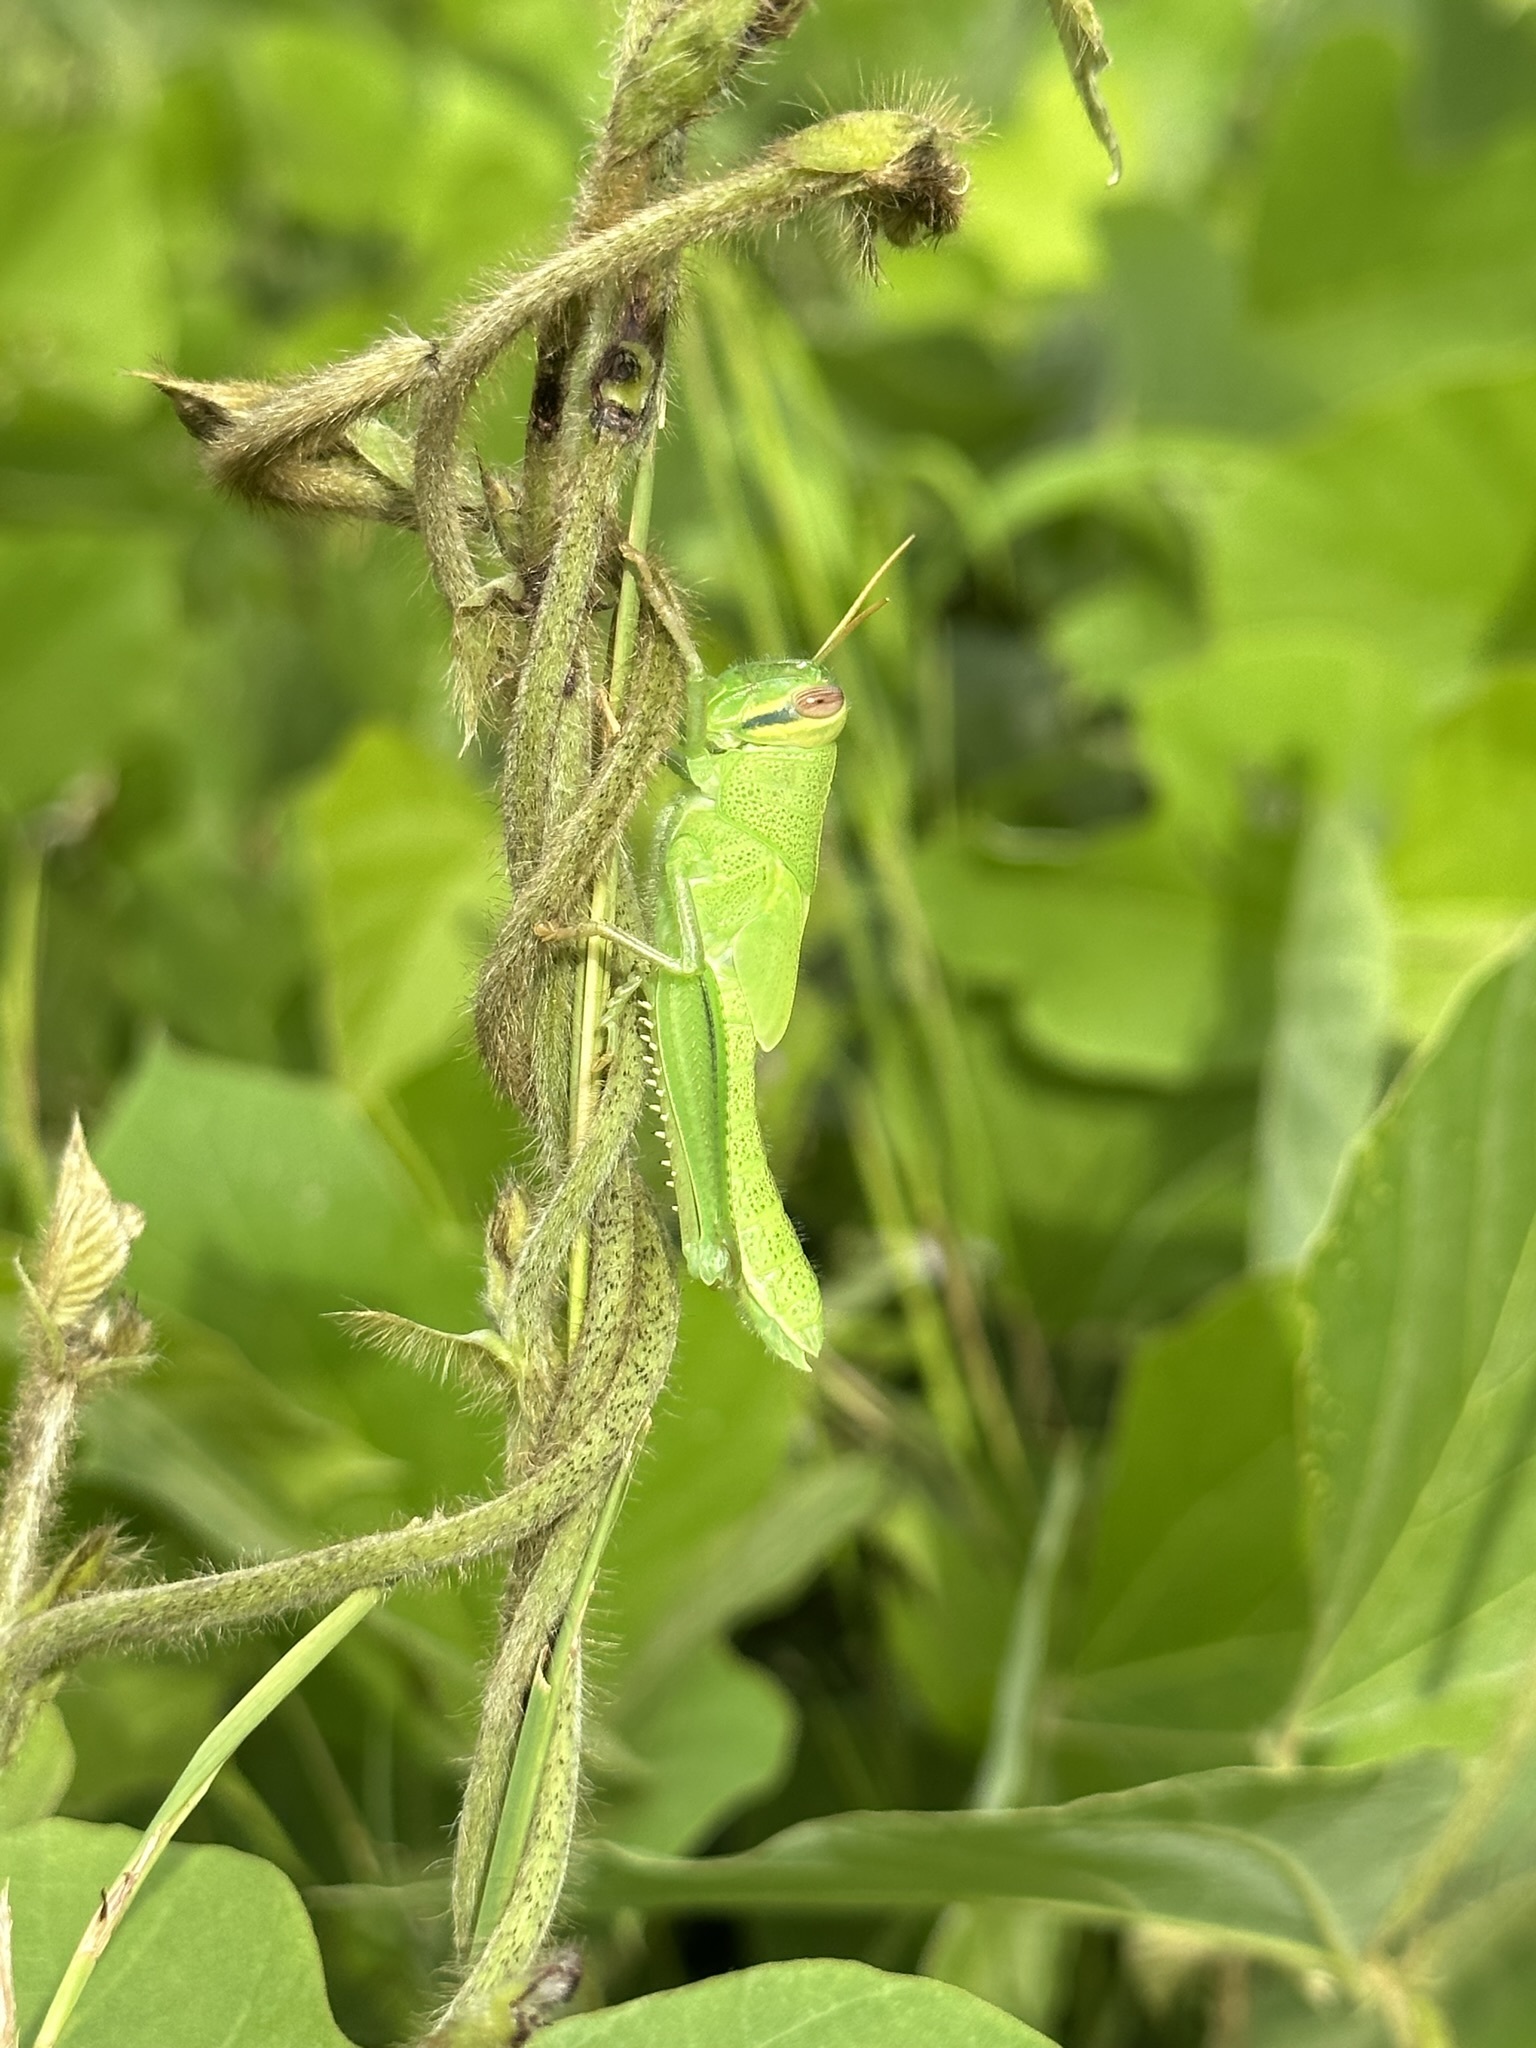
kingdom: Animalia
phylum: Arthropoda
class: Insecta
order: Orthoptera
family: Acrididae
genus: Patanga
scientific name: Patanga japonica
